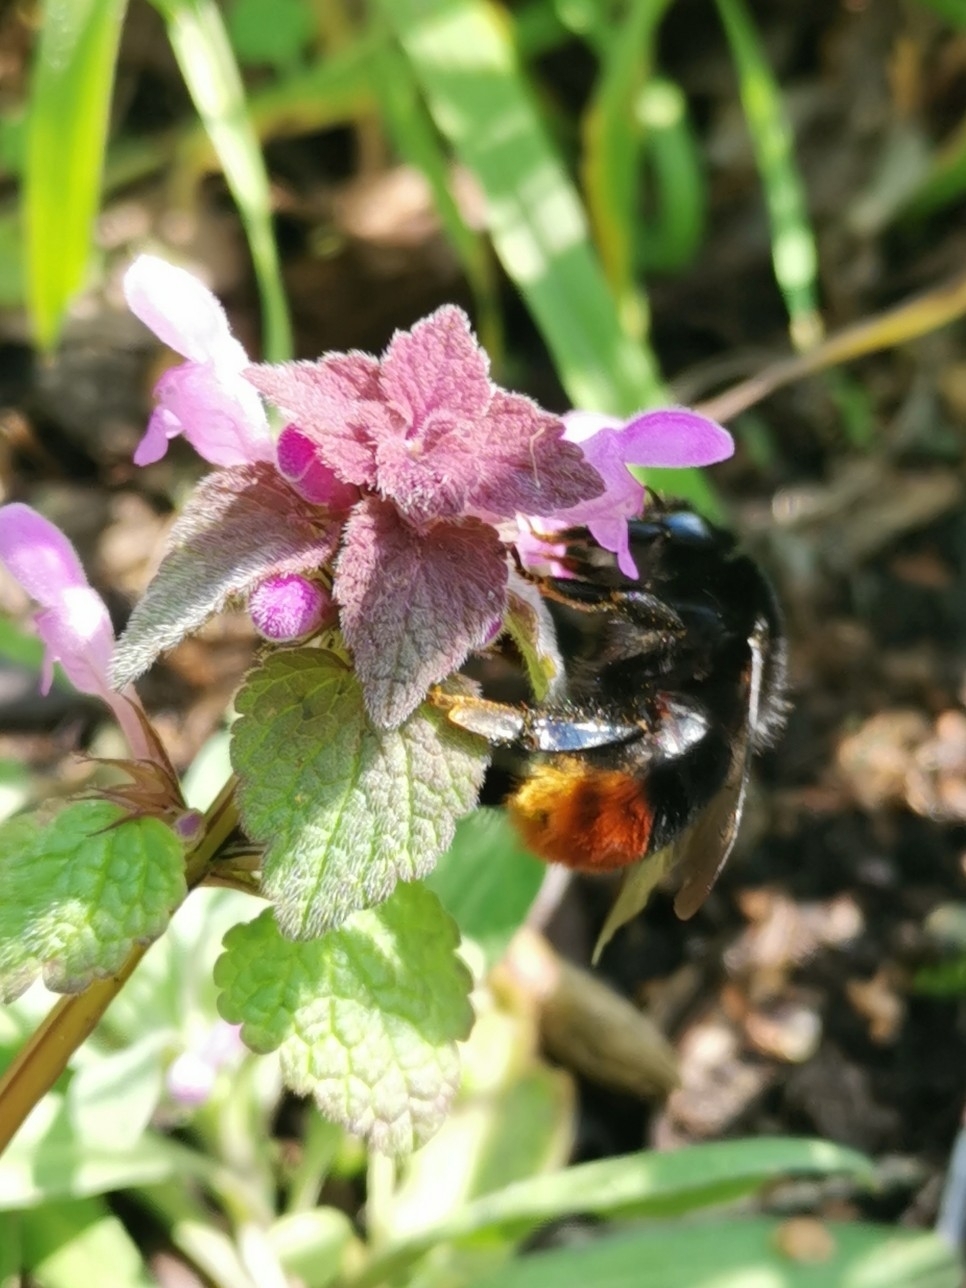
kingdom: Animalia
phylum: Arthropoda
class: Insecta
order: Hymenoptera
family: Apidae
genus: Bombus
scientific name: Bombus lapidarius
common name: Large red-tailed humble-bee
